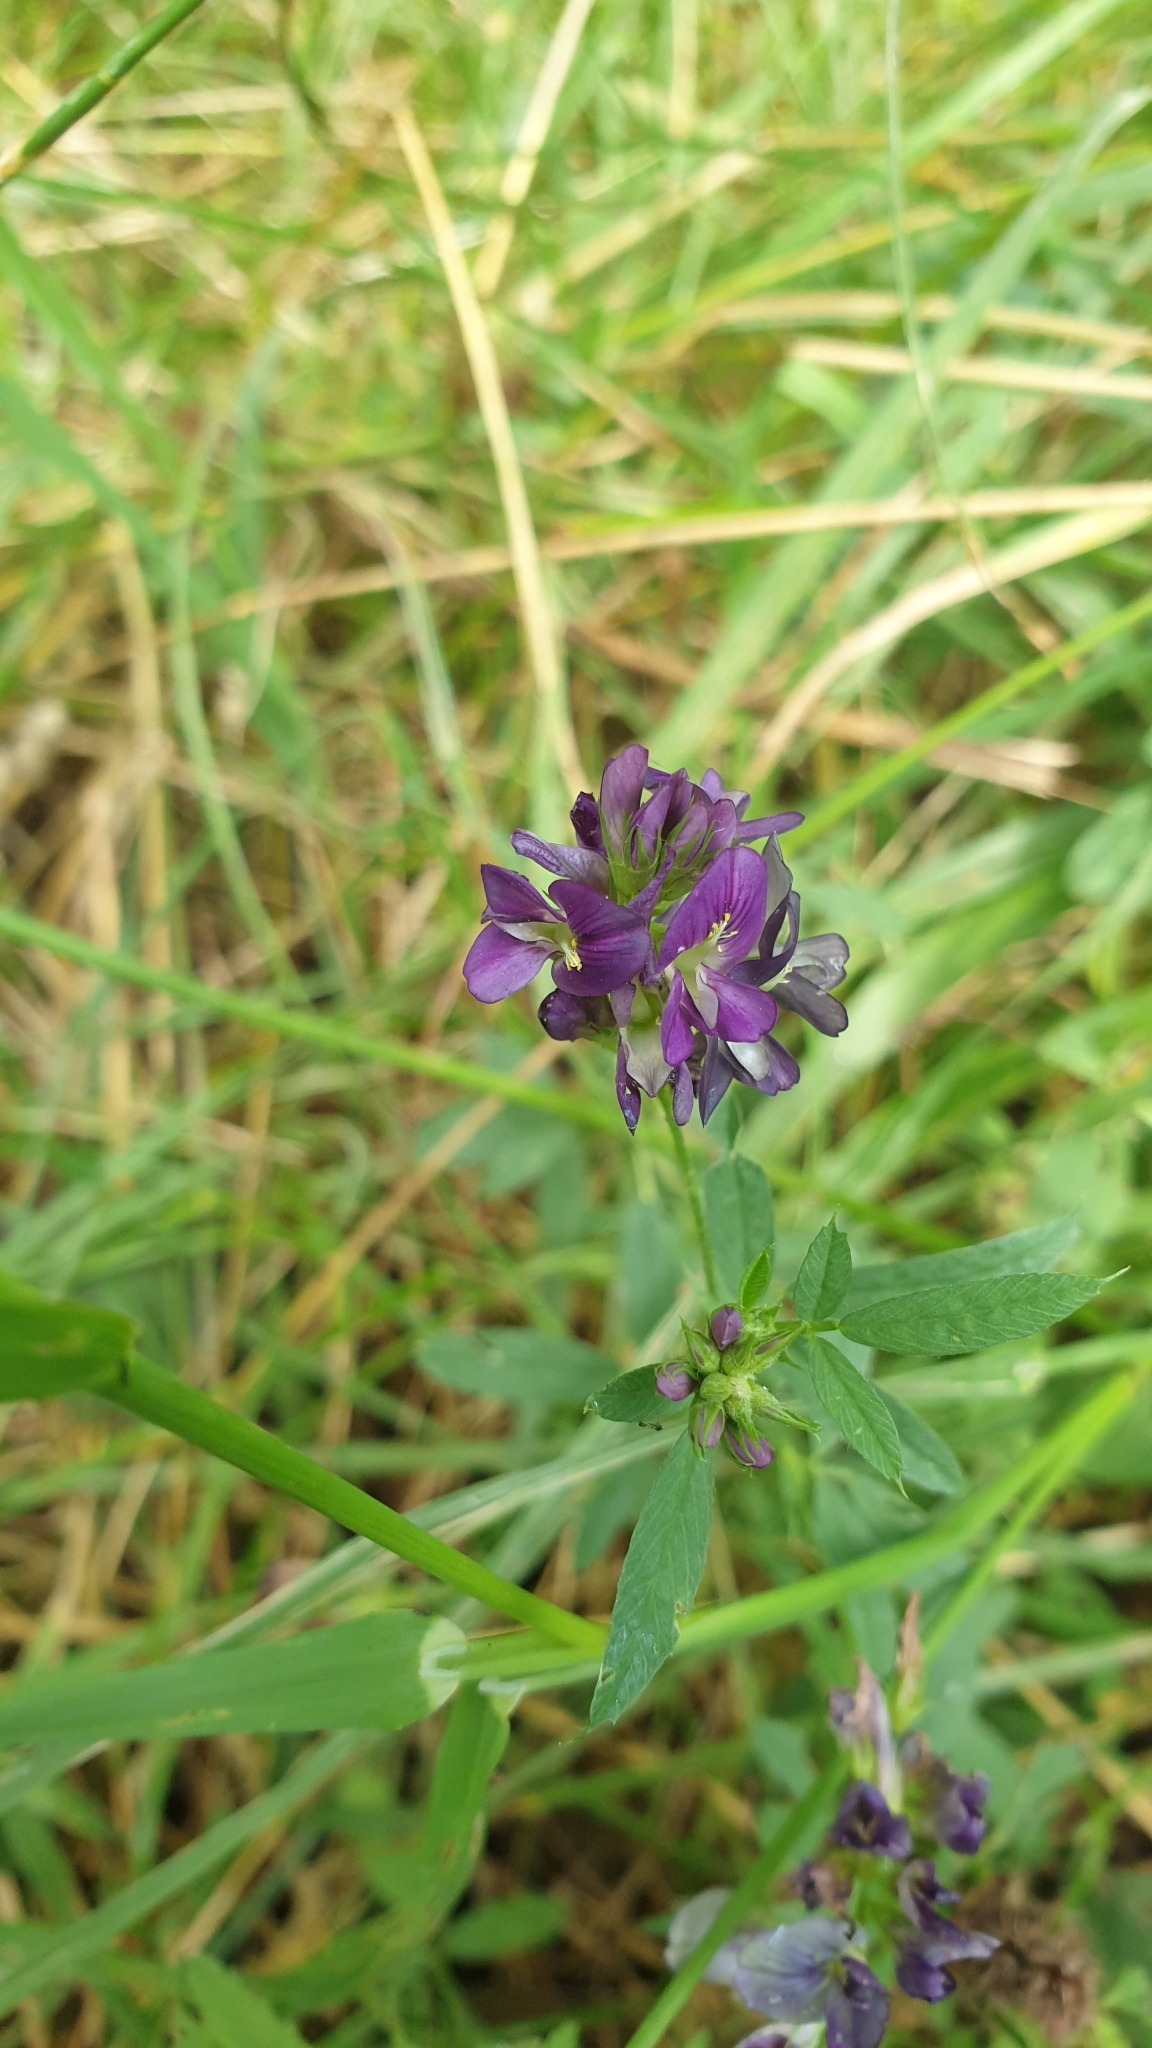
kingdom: Plantae
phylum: Tracheophyta
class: Magnoliopsida
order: Fabales
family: Fabaceae
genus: Medicago
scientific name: Medicago varia
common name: Sand lucerne
